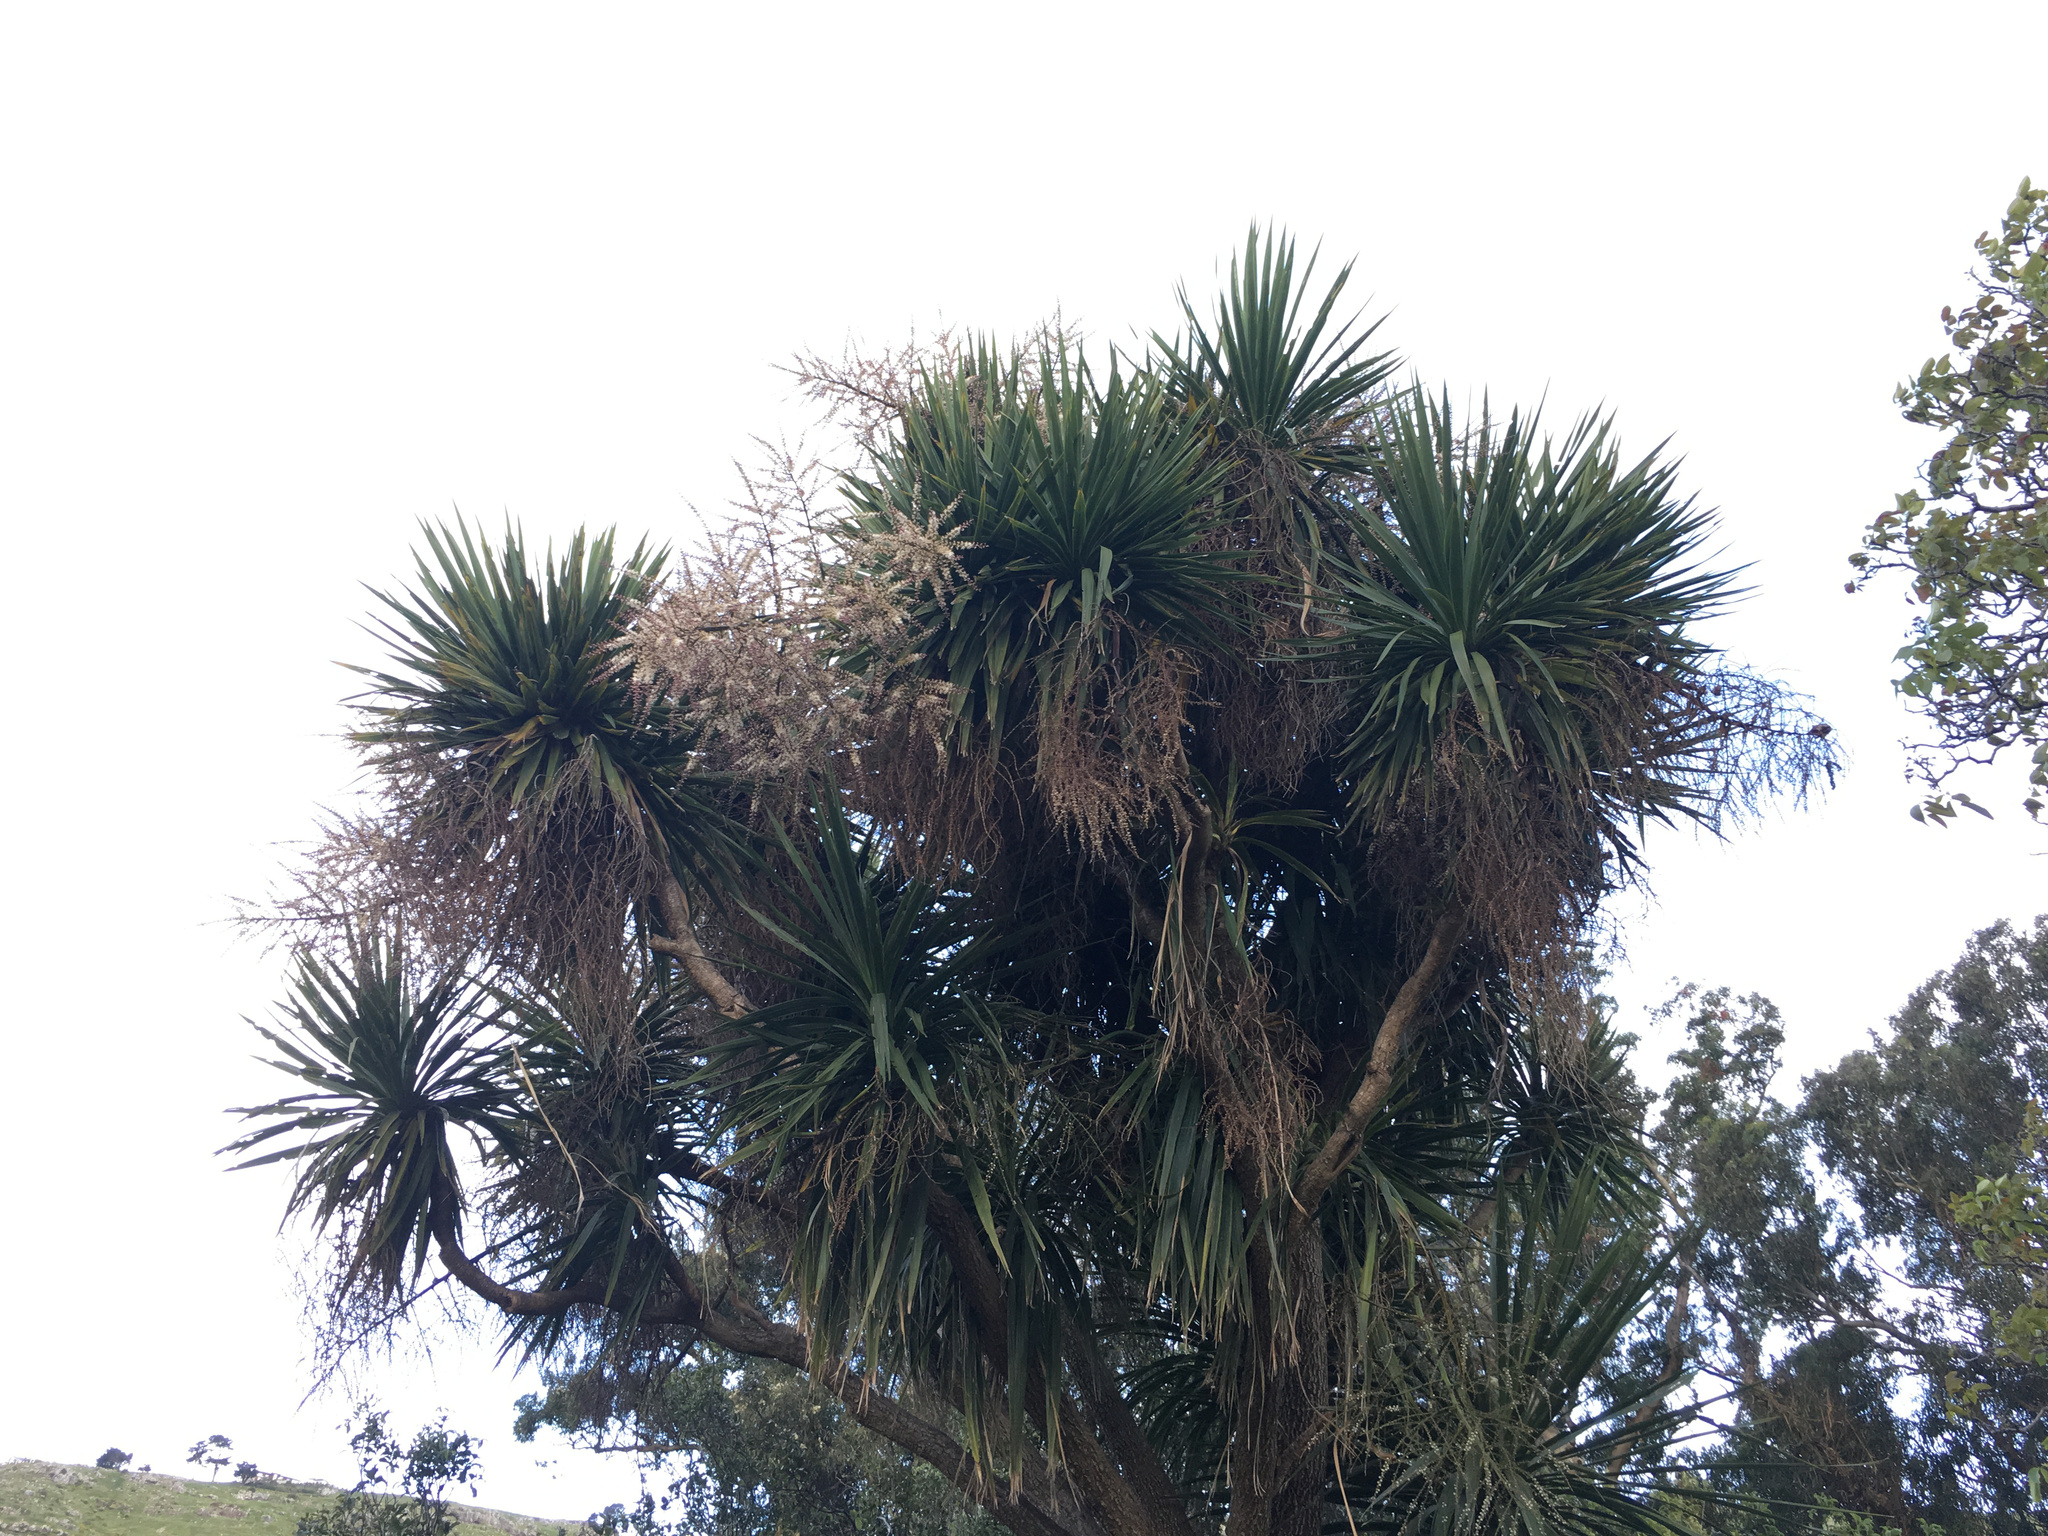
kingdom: Plantae
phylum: Tracheophyta
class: Liliopsida
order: Asparagales
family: Asparagaceae
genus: Cordyline
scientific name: Cordyline australis
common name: Cabbage-palm
